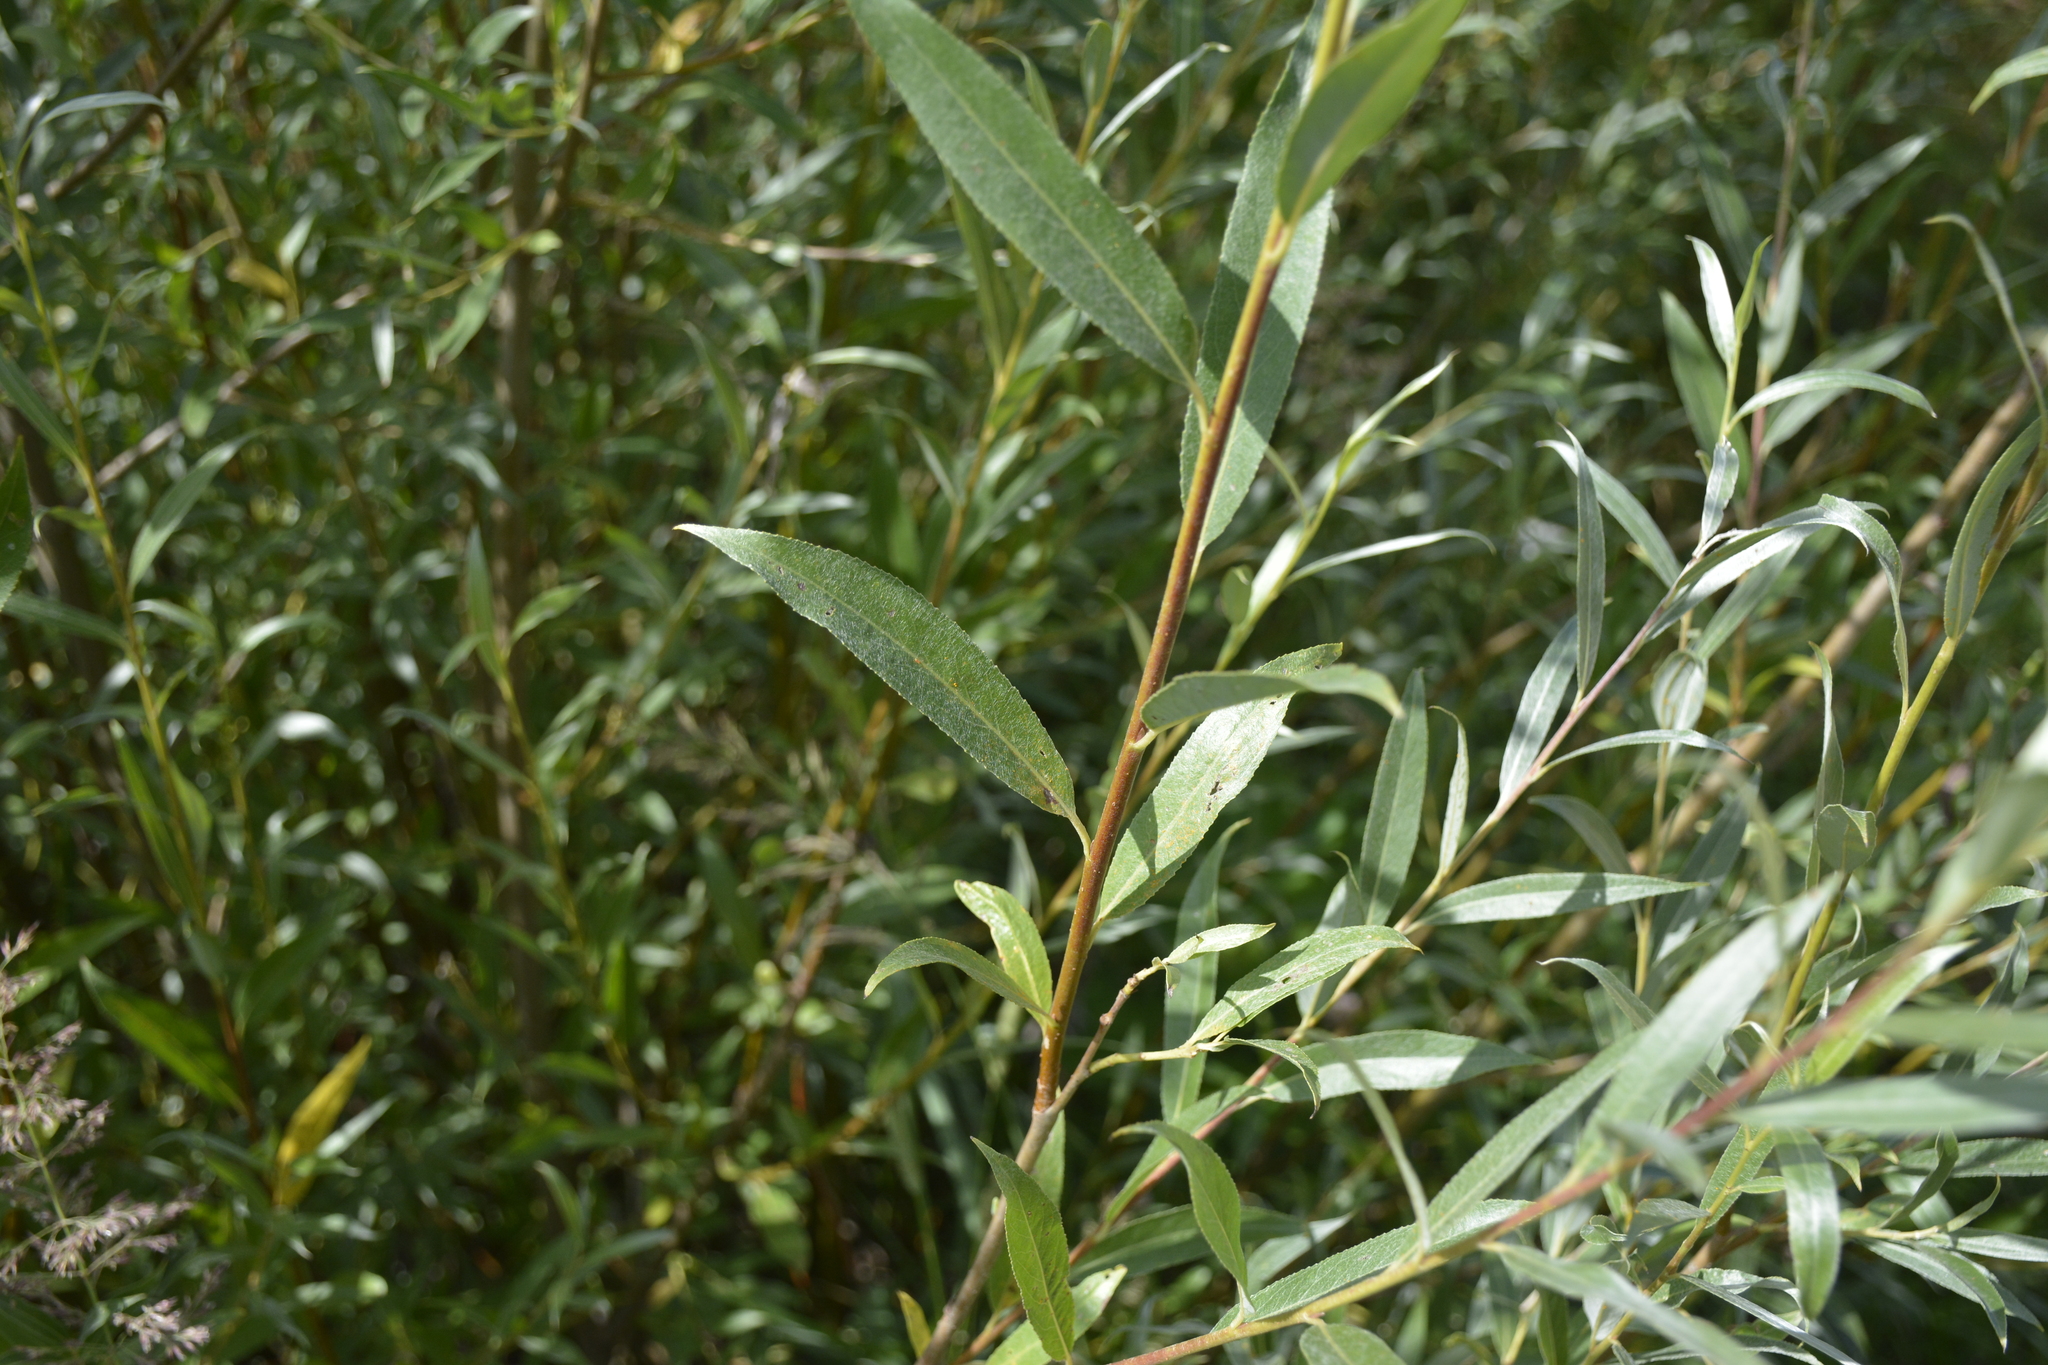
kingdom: Plantae
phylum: Tracheophyta
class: Magnoliopsida
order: Malpighiales
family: Salicaceae
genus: Salix
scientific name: Salix alba
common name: White willow
